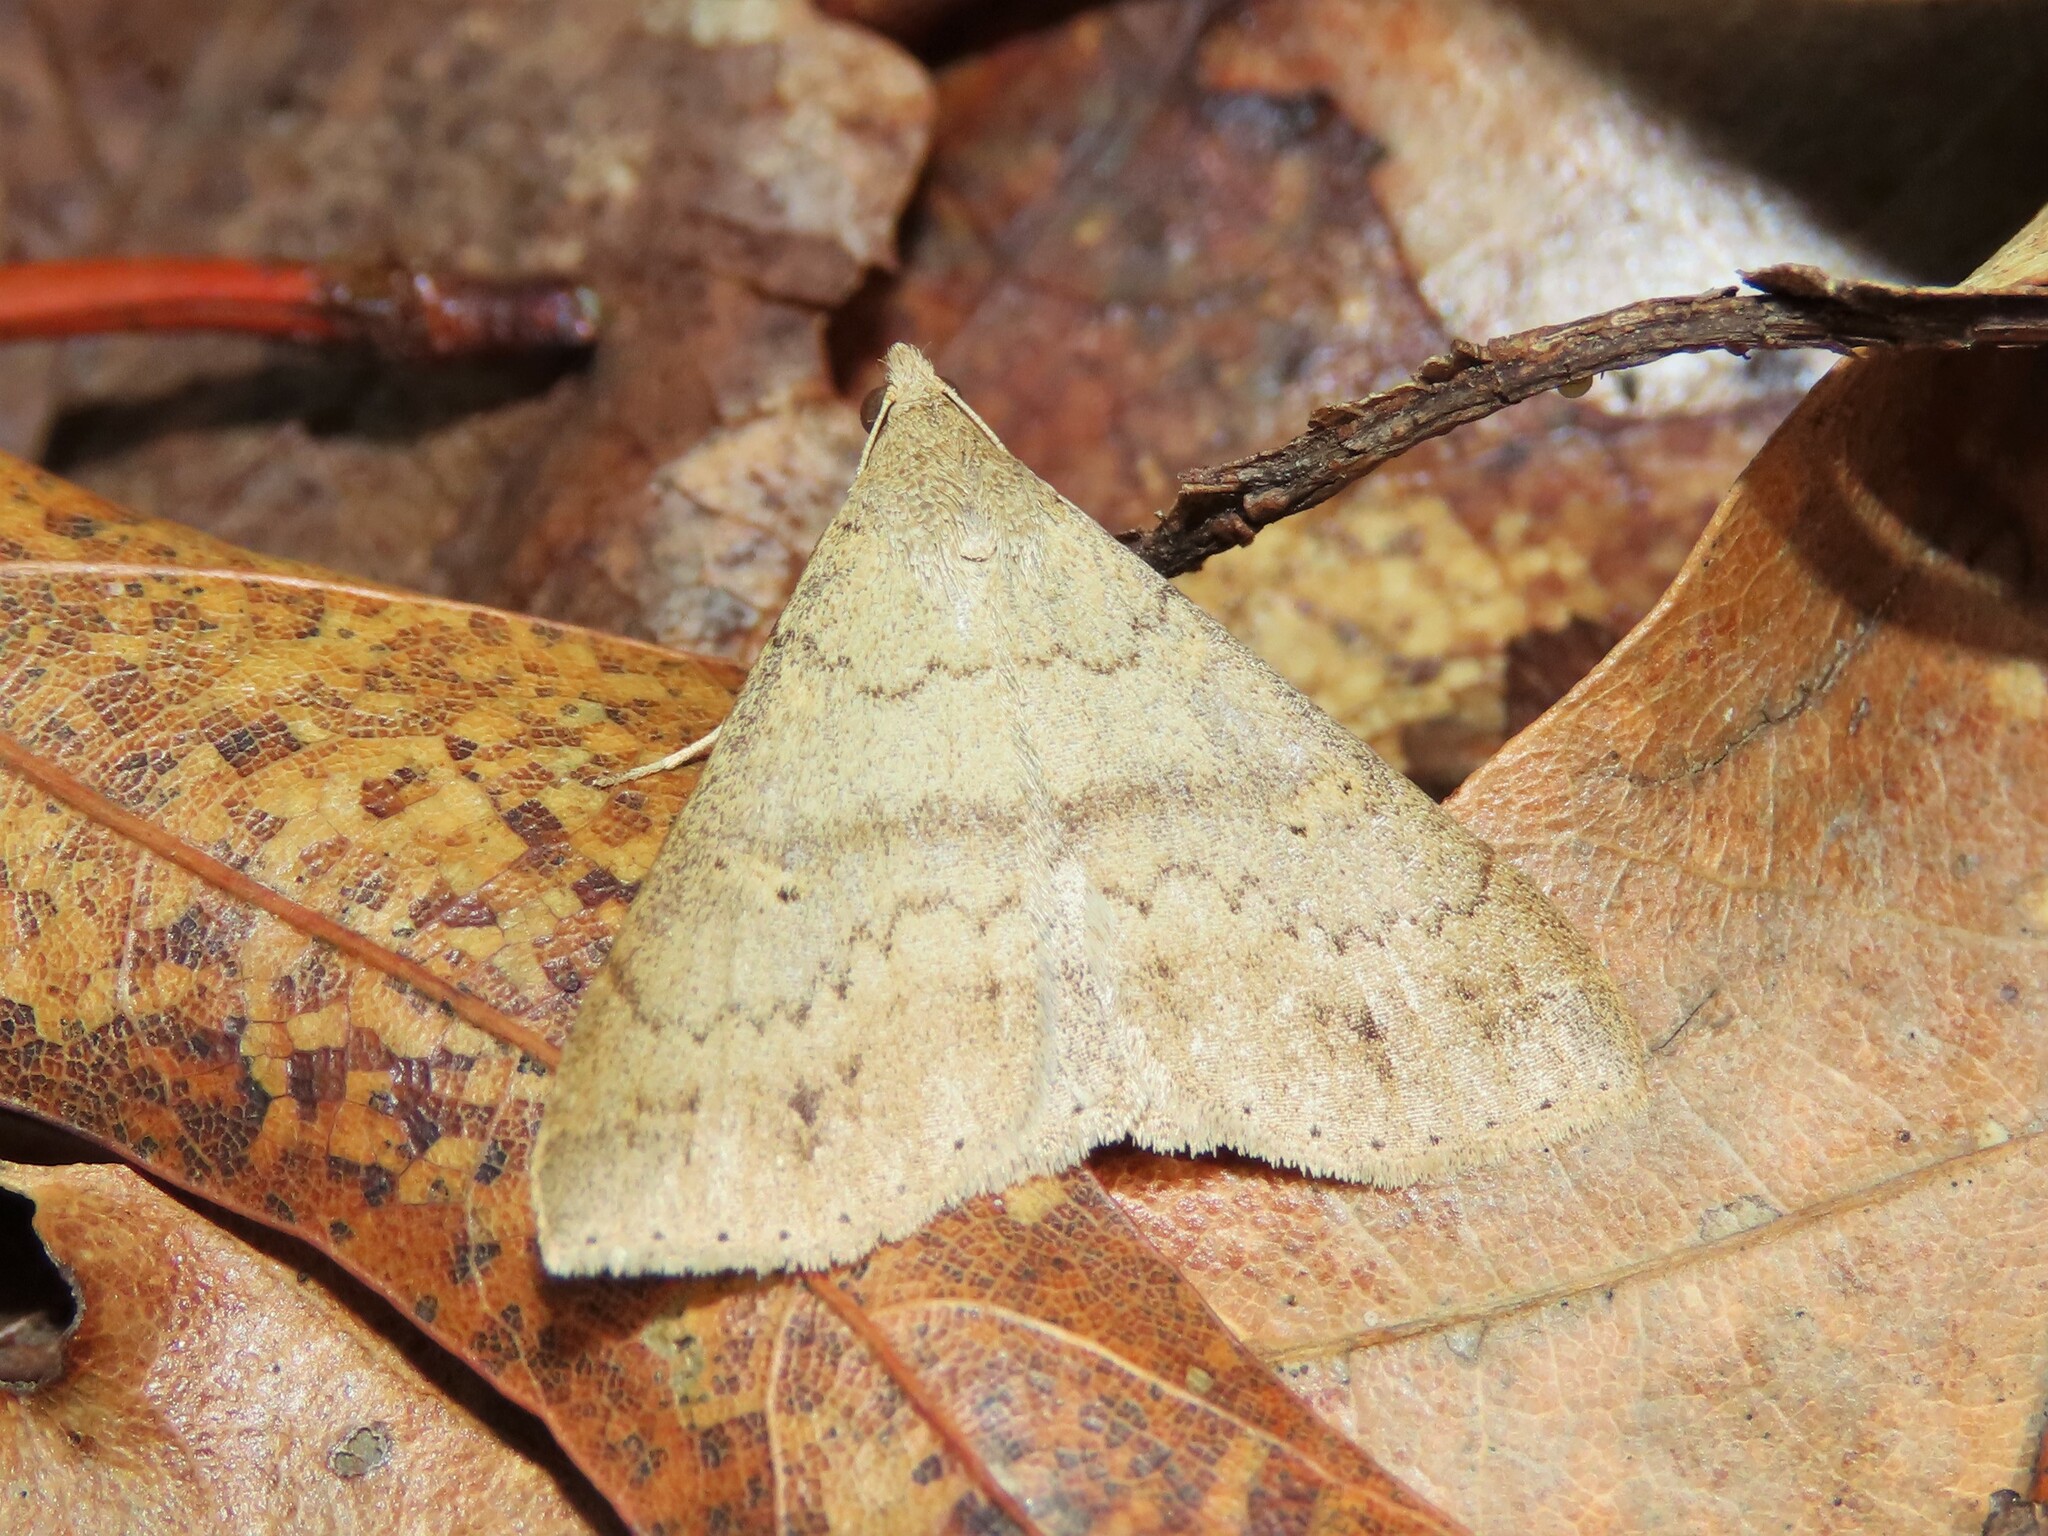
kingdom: Animalia
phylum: Arthropoda
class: Insecta
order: Lepidoptera
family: Erebidae
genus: Renia
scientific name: Renia discoloralis
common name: Discolored renia moth
